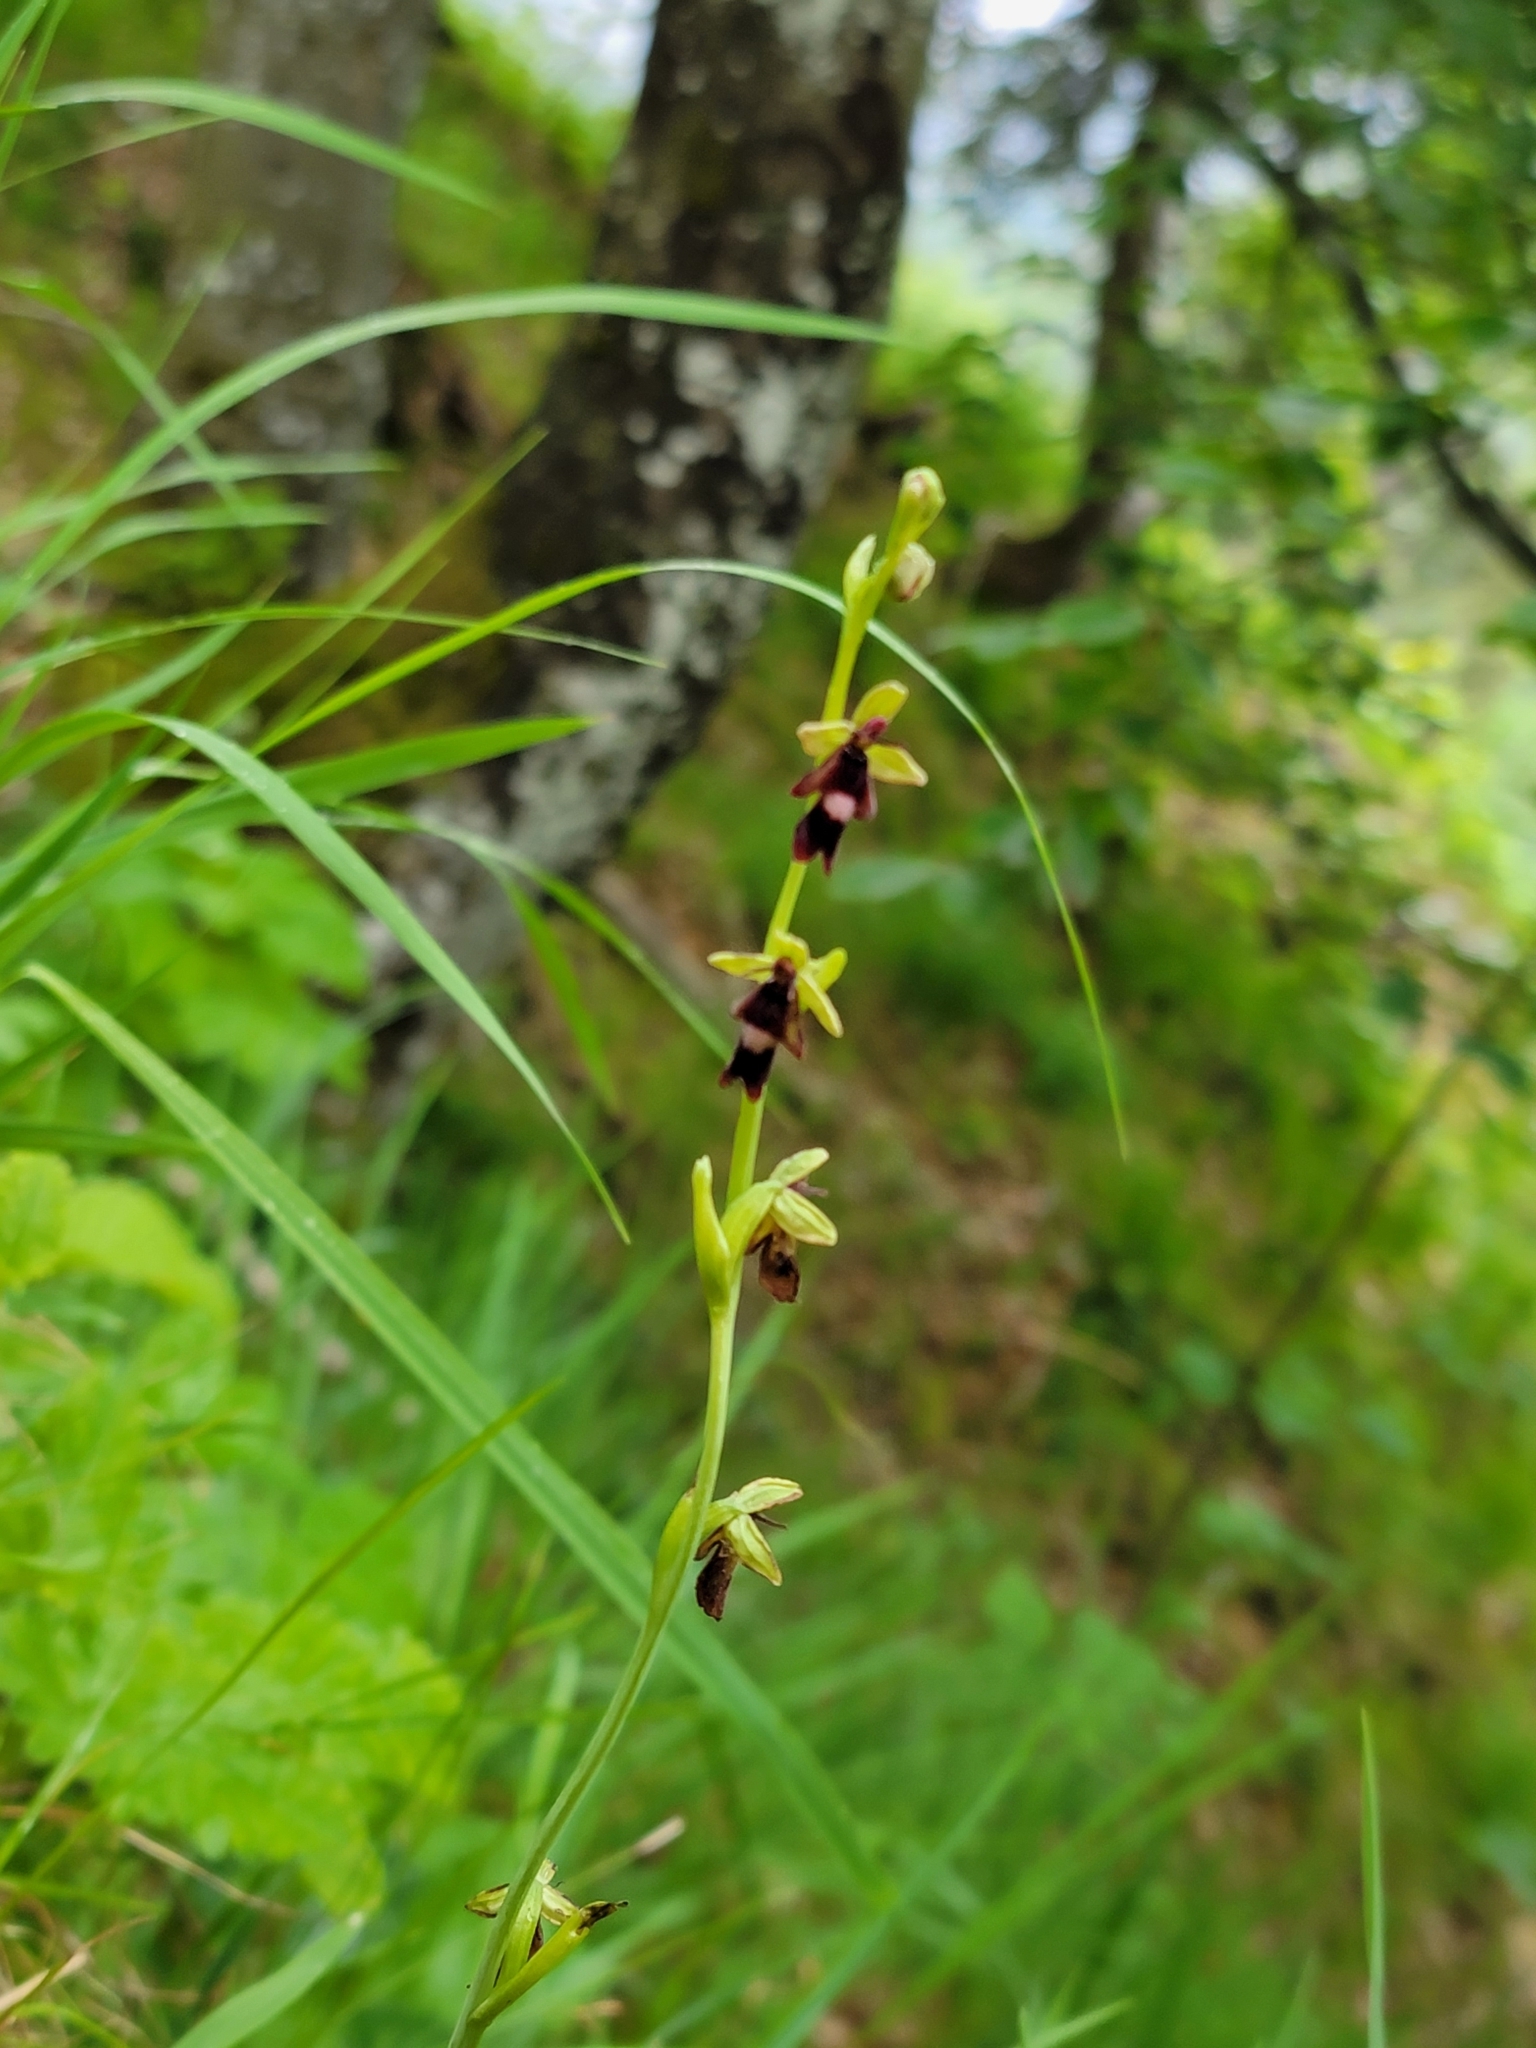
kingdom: Plantae
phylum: Tracheophyta
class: Liliopsida
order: Asparagales
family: Orchidaceae
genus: Ophrys
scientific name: Ophrys insectifera
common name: Fly orchid
